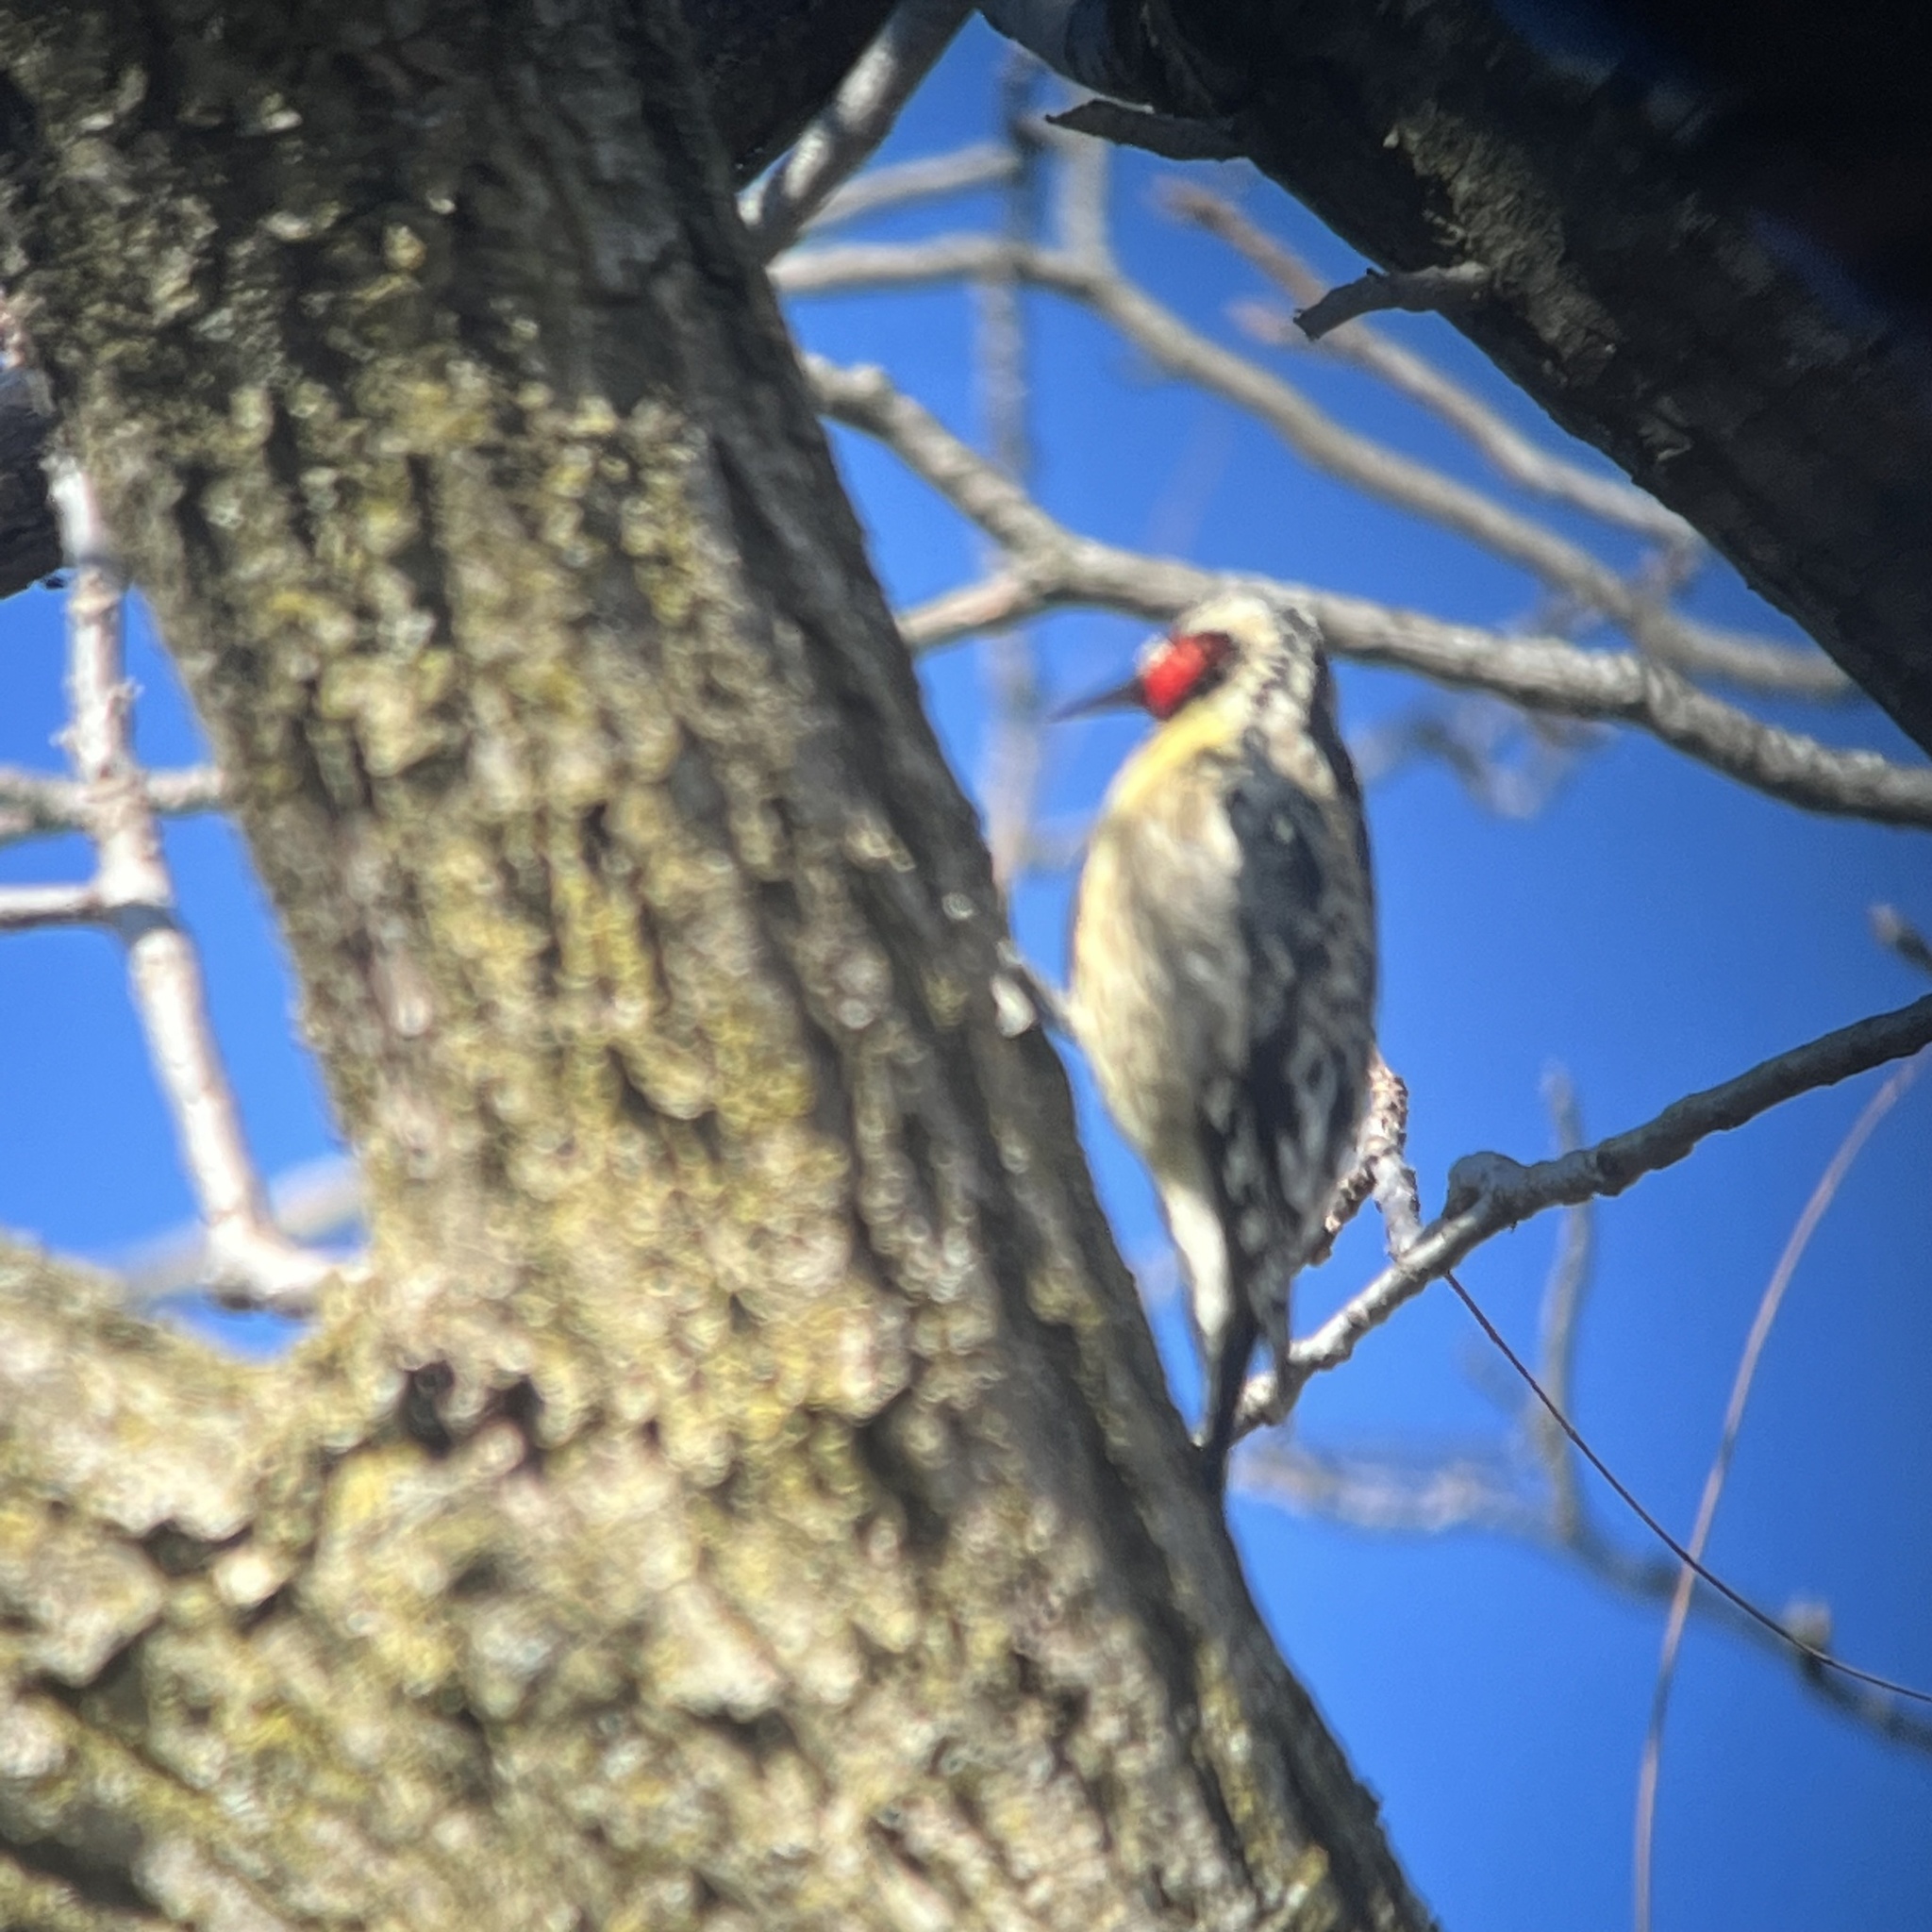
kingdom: Animalia
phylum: Chordata
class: Aves
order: Piciformes
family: Picidae
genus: Sphyrapicus
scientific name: Sphyrapicus varius
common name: Yellow-bellied sapsucker
